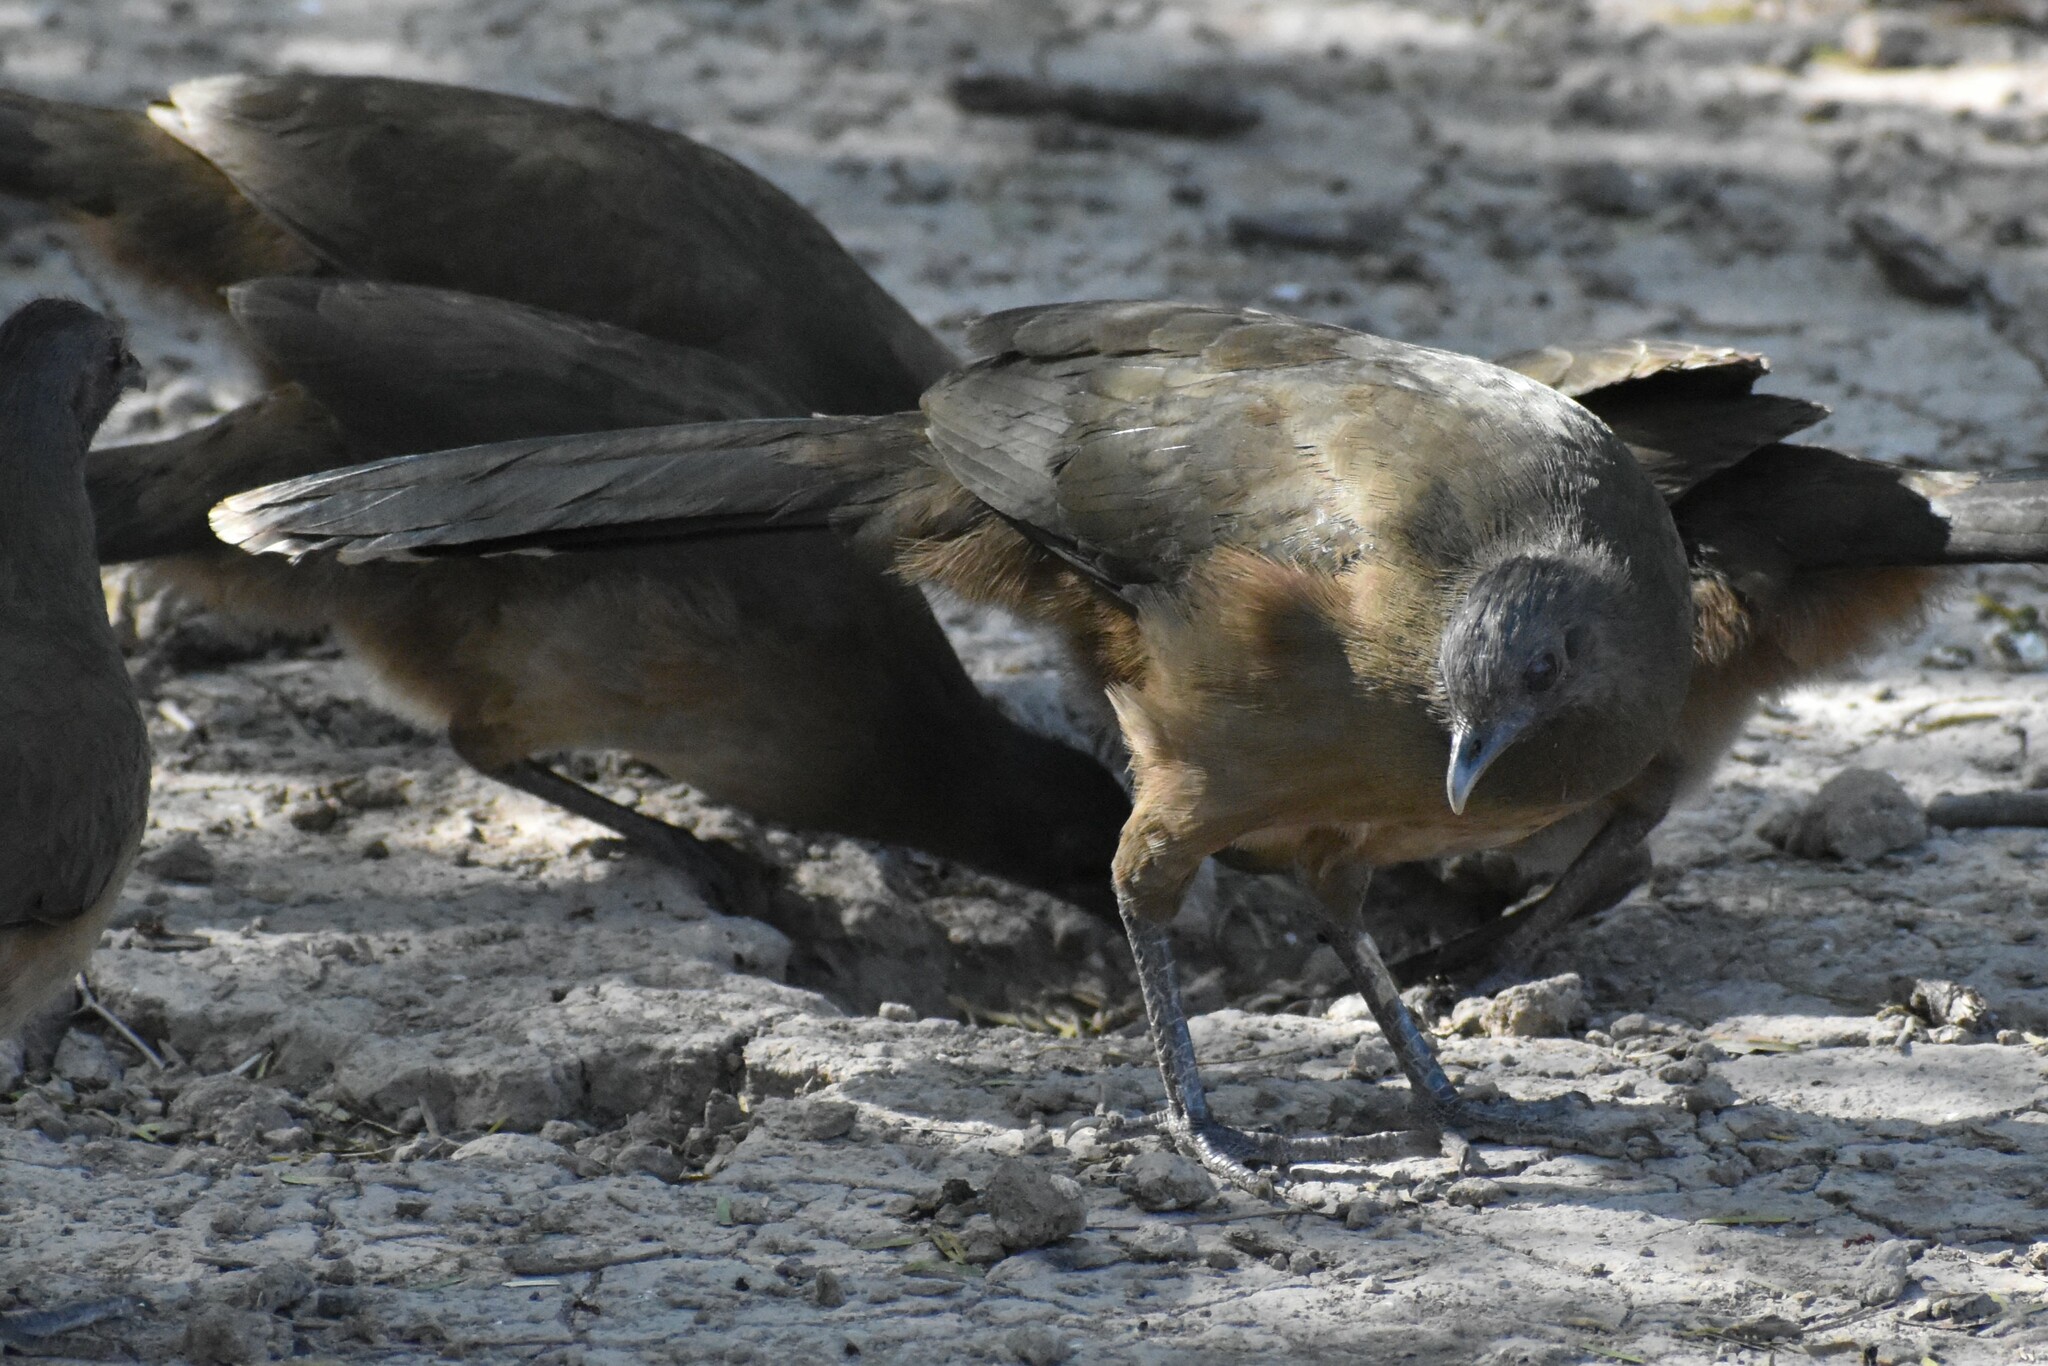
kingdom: Animalia
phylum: Chordata
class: Aves
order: Galliformes
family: Cracidae
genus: Ortalis
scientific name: Ortalis vetula
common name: Plain chachalaca
